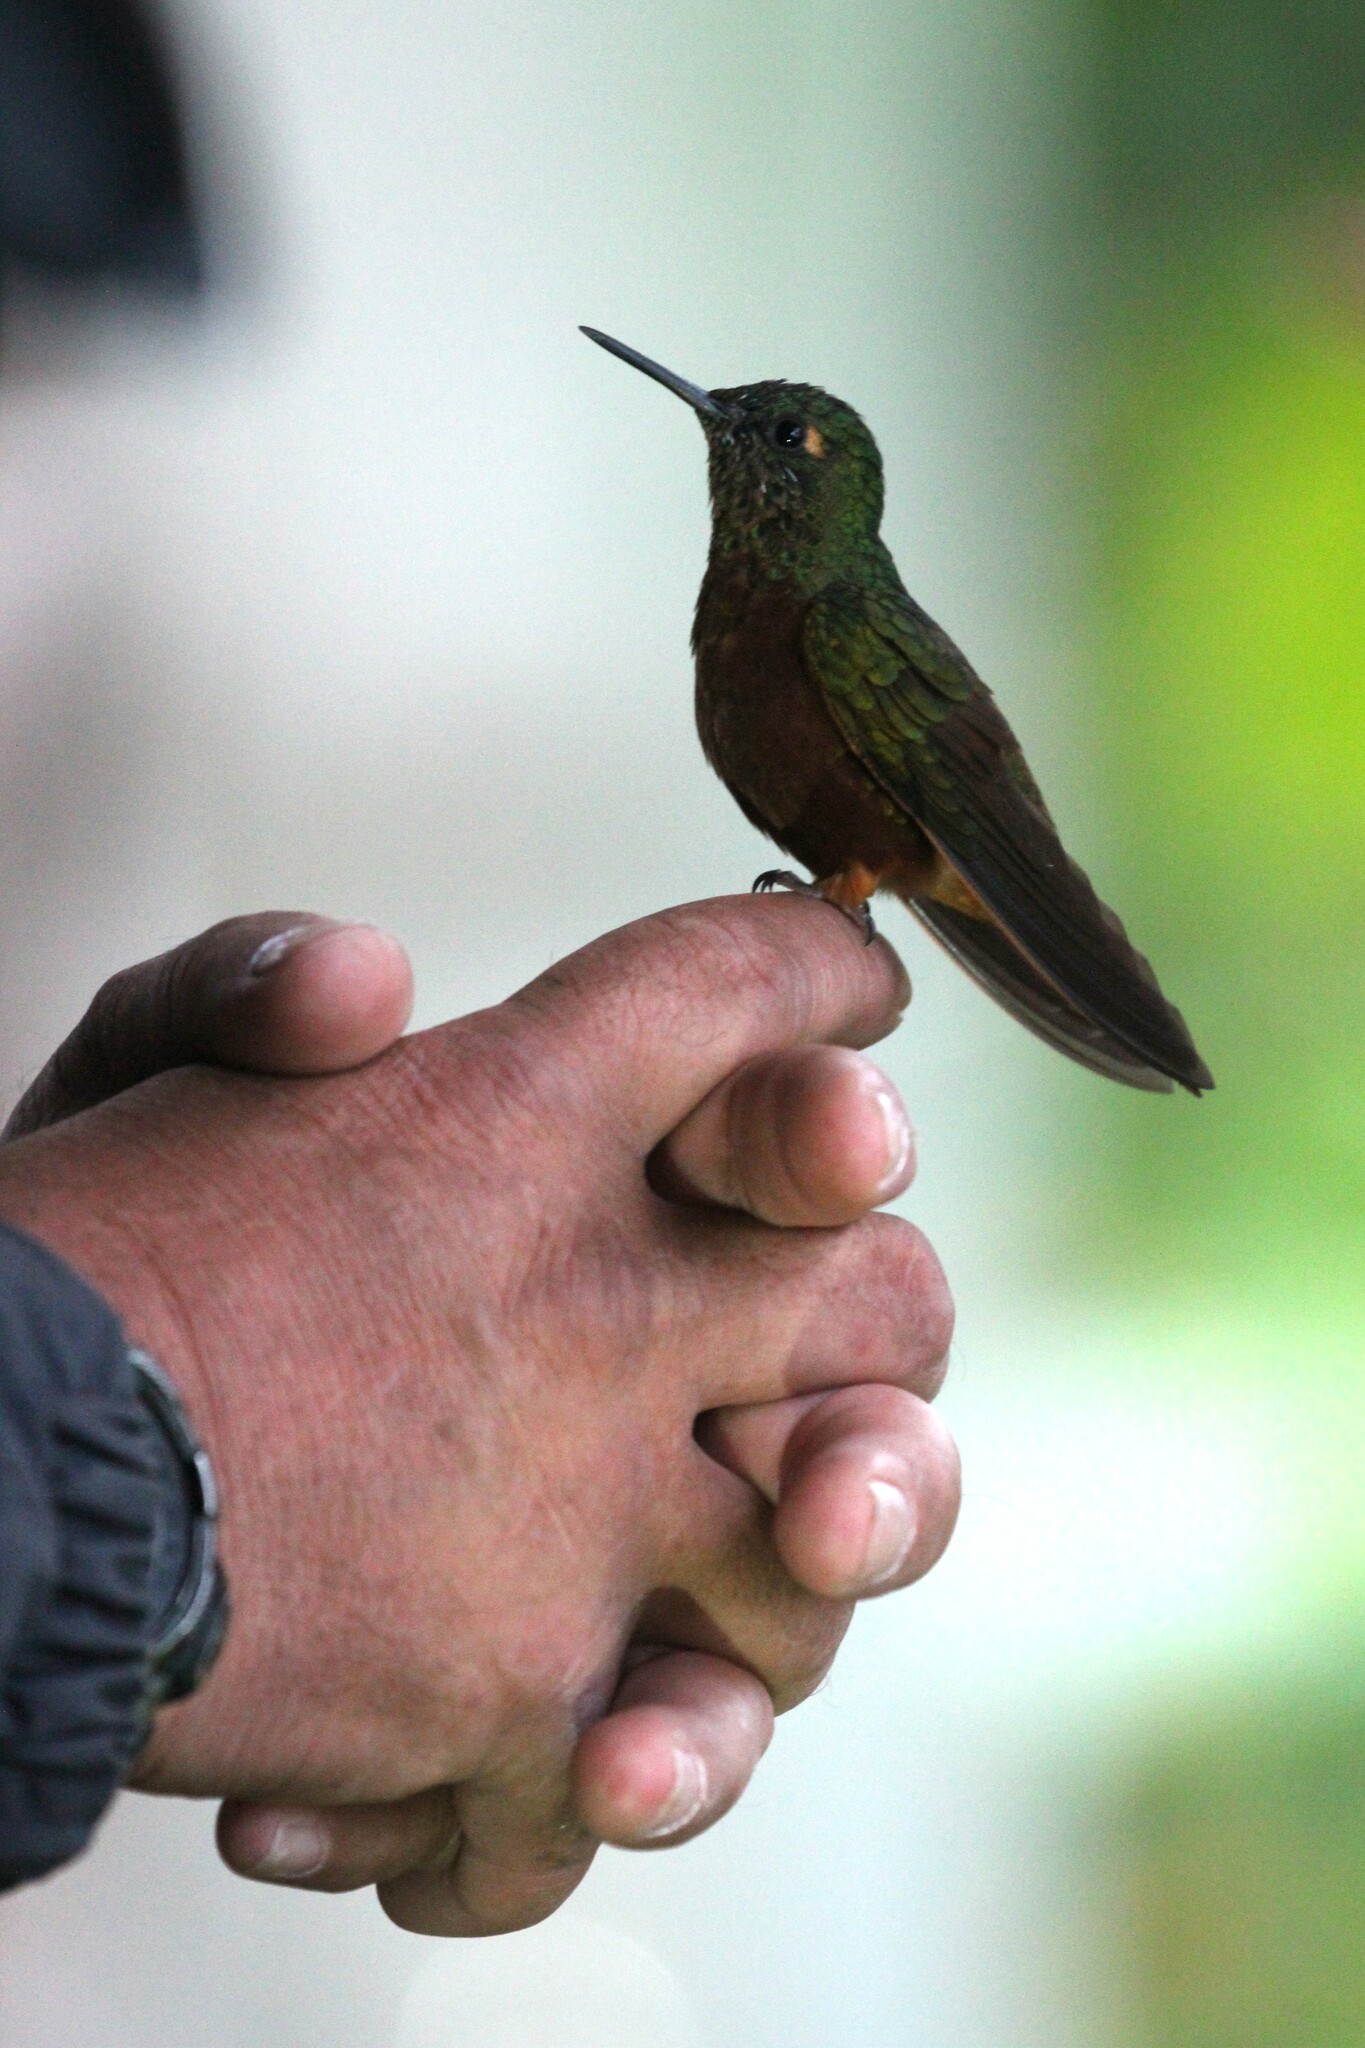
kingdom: Animalia
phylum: Chordata
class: Aves
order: Apodiformes
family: Trochilidae
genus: Boissonneaua
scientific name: Boissonneaua matthewsii
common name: Chestnut-breasted coronet
